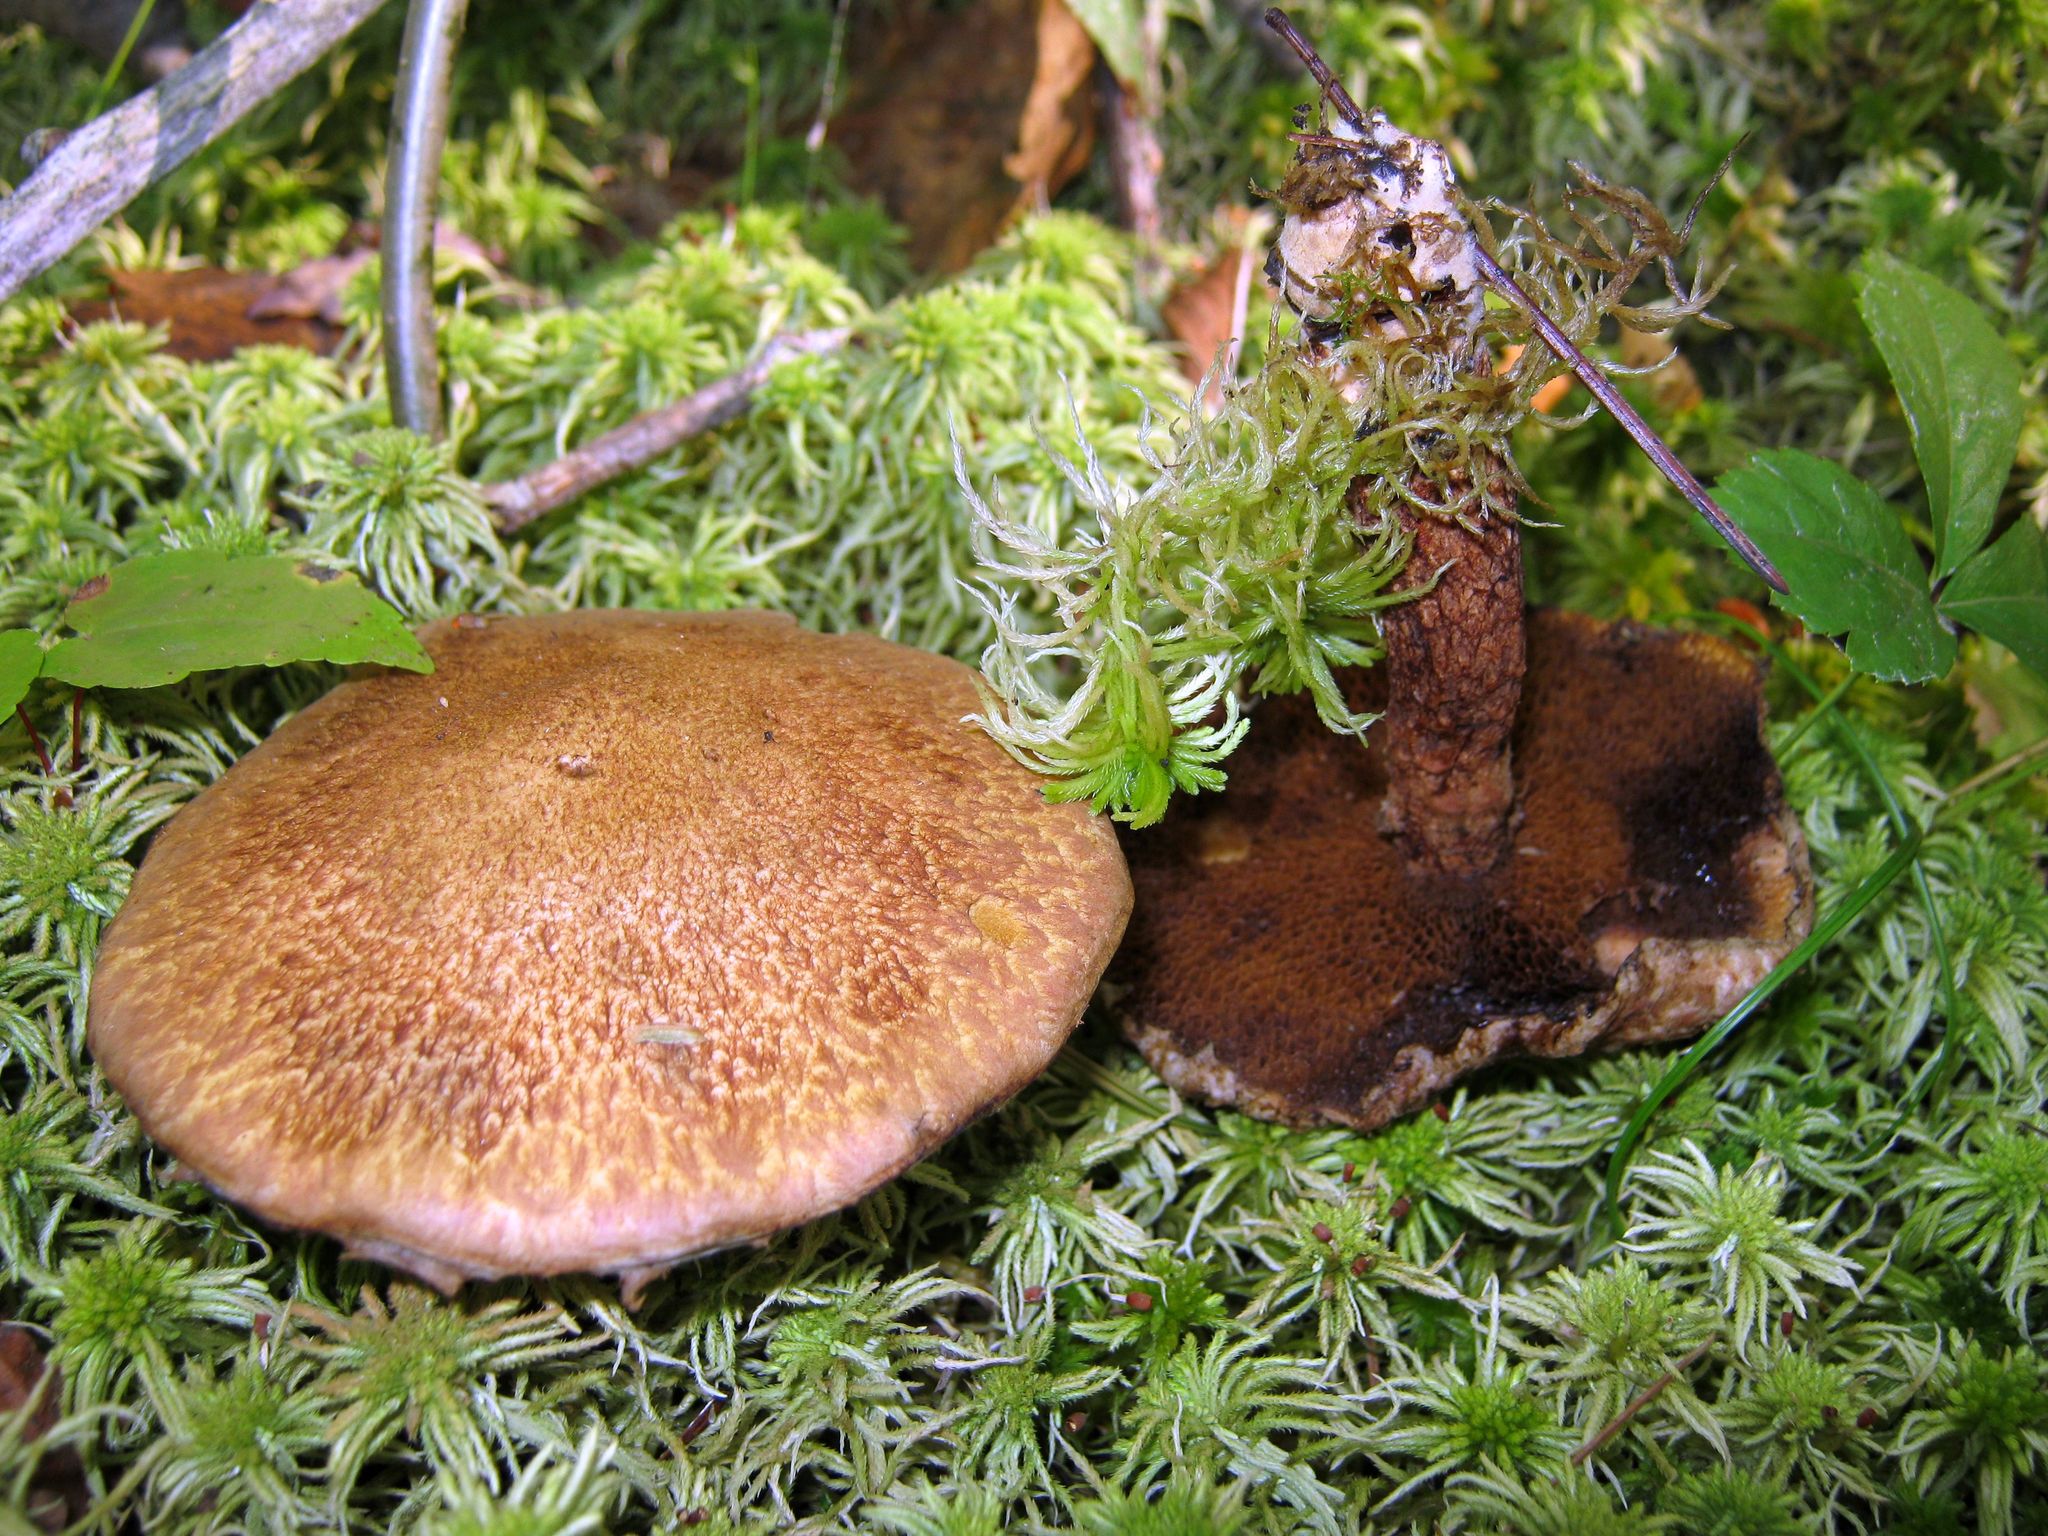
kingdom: Fungi
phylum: Basidiomycota
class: Agaricomycetes
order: Boletales
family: Suillaceae
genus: Suillus
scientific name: Suillus spraguei
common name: Painted suillus
